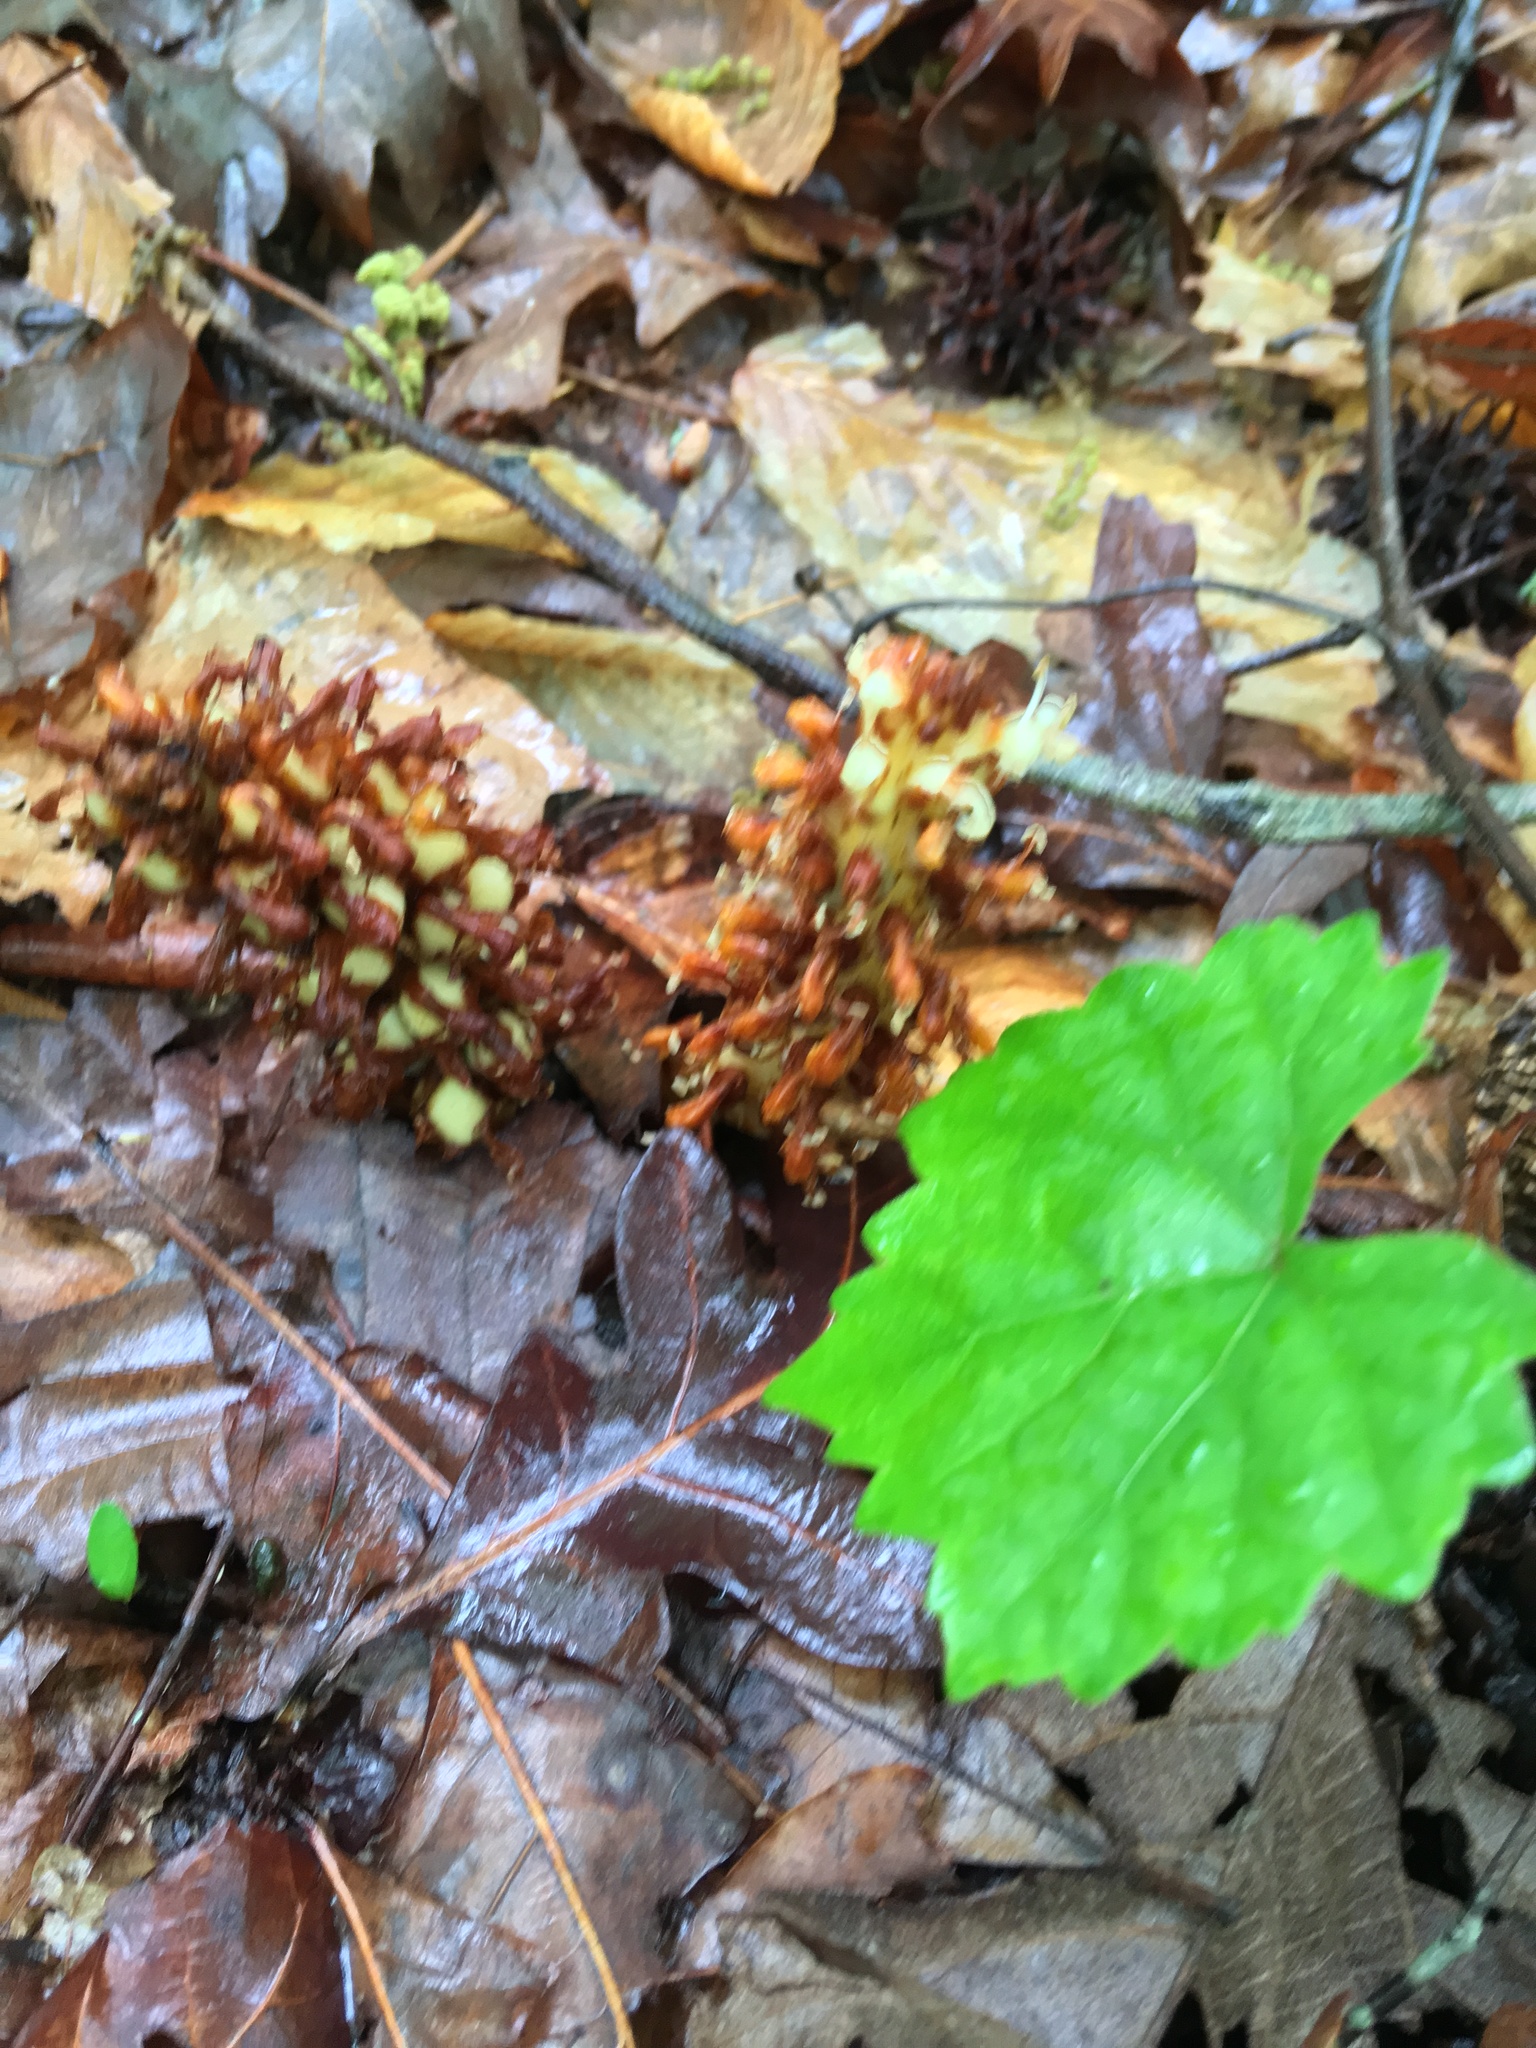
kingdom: Plantae
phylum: Tracheophyta
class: Magnoliopsida
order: Lamiales
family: Orobanchaceae
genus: Conopholis
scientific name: Conopholis americana
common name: American cancer-root
